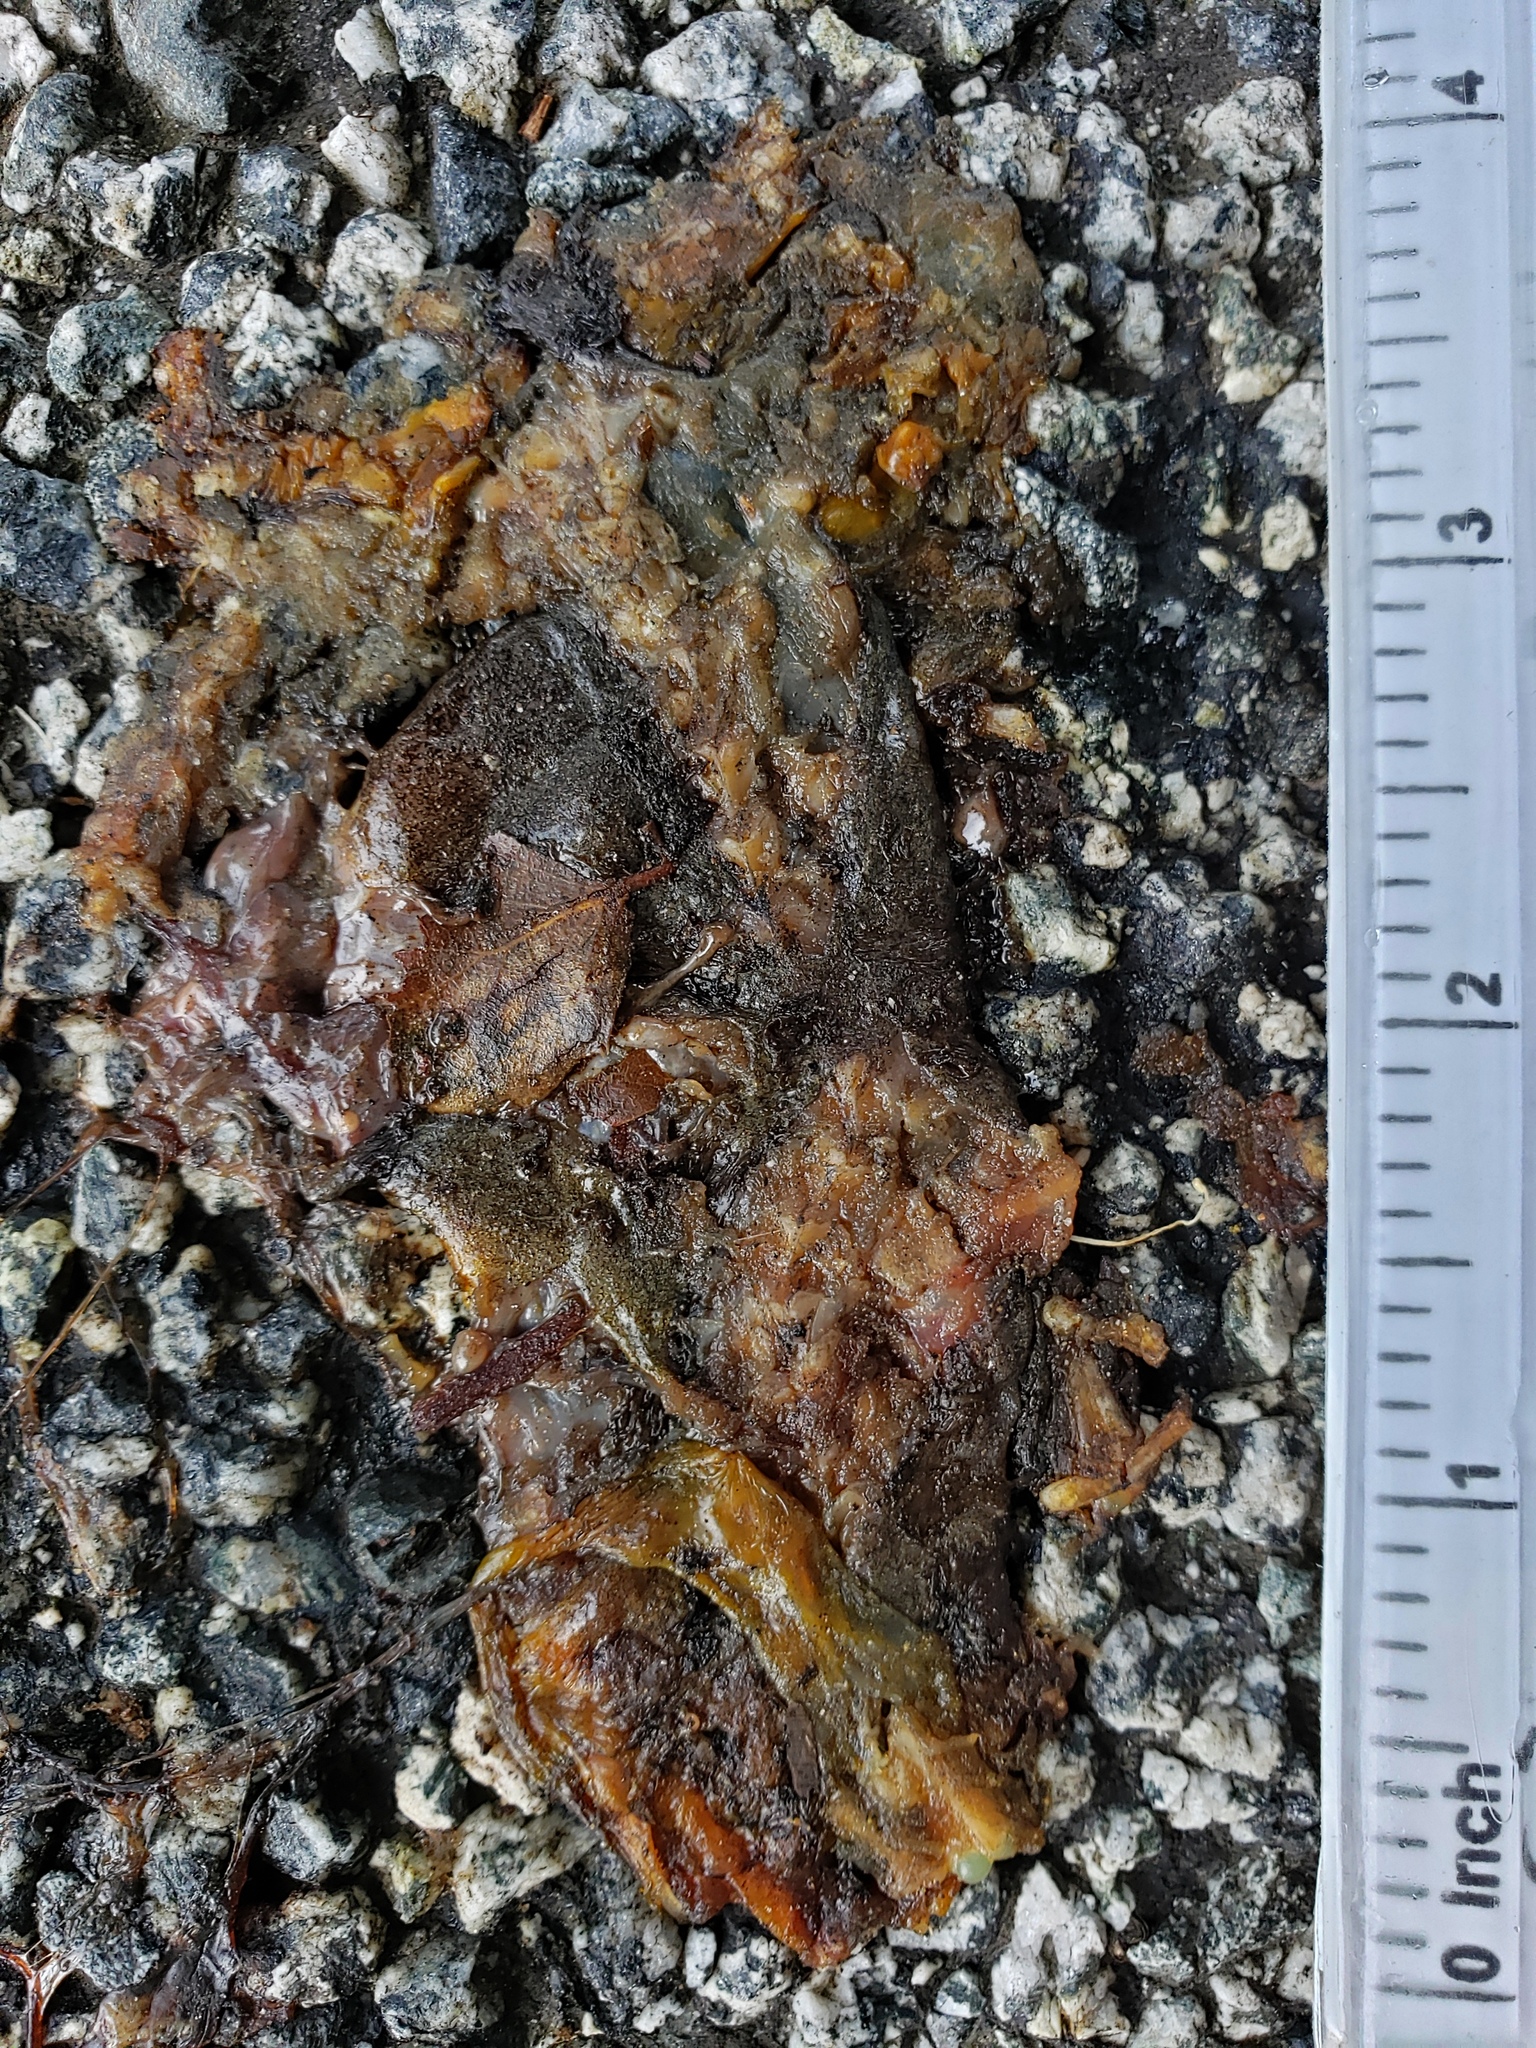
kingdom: Animalia
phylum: Chordata
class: Amphibia
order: Caudata
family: Salamandridae
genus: Taricha
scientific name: Taricha
